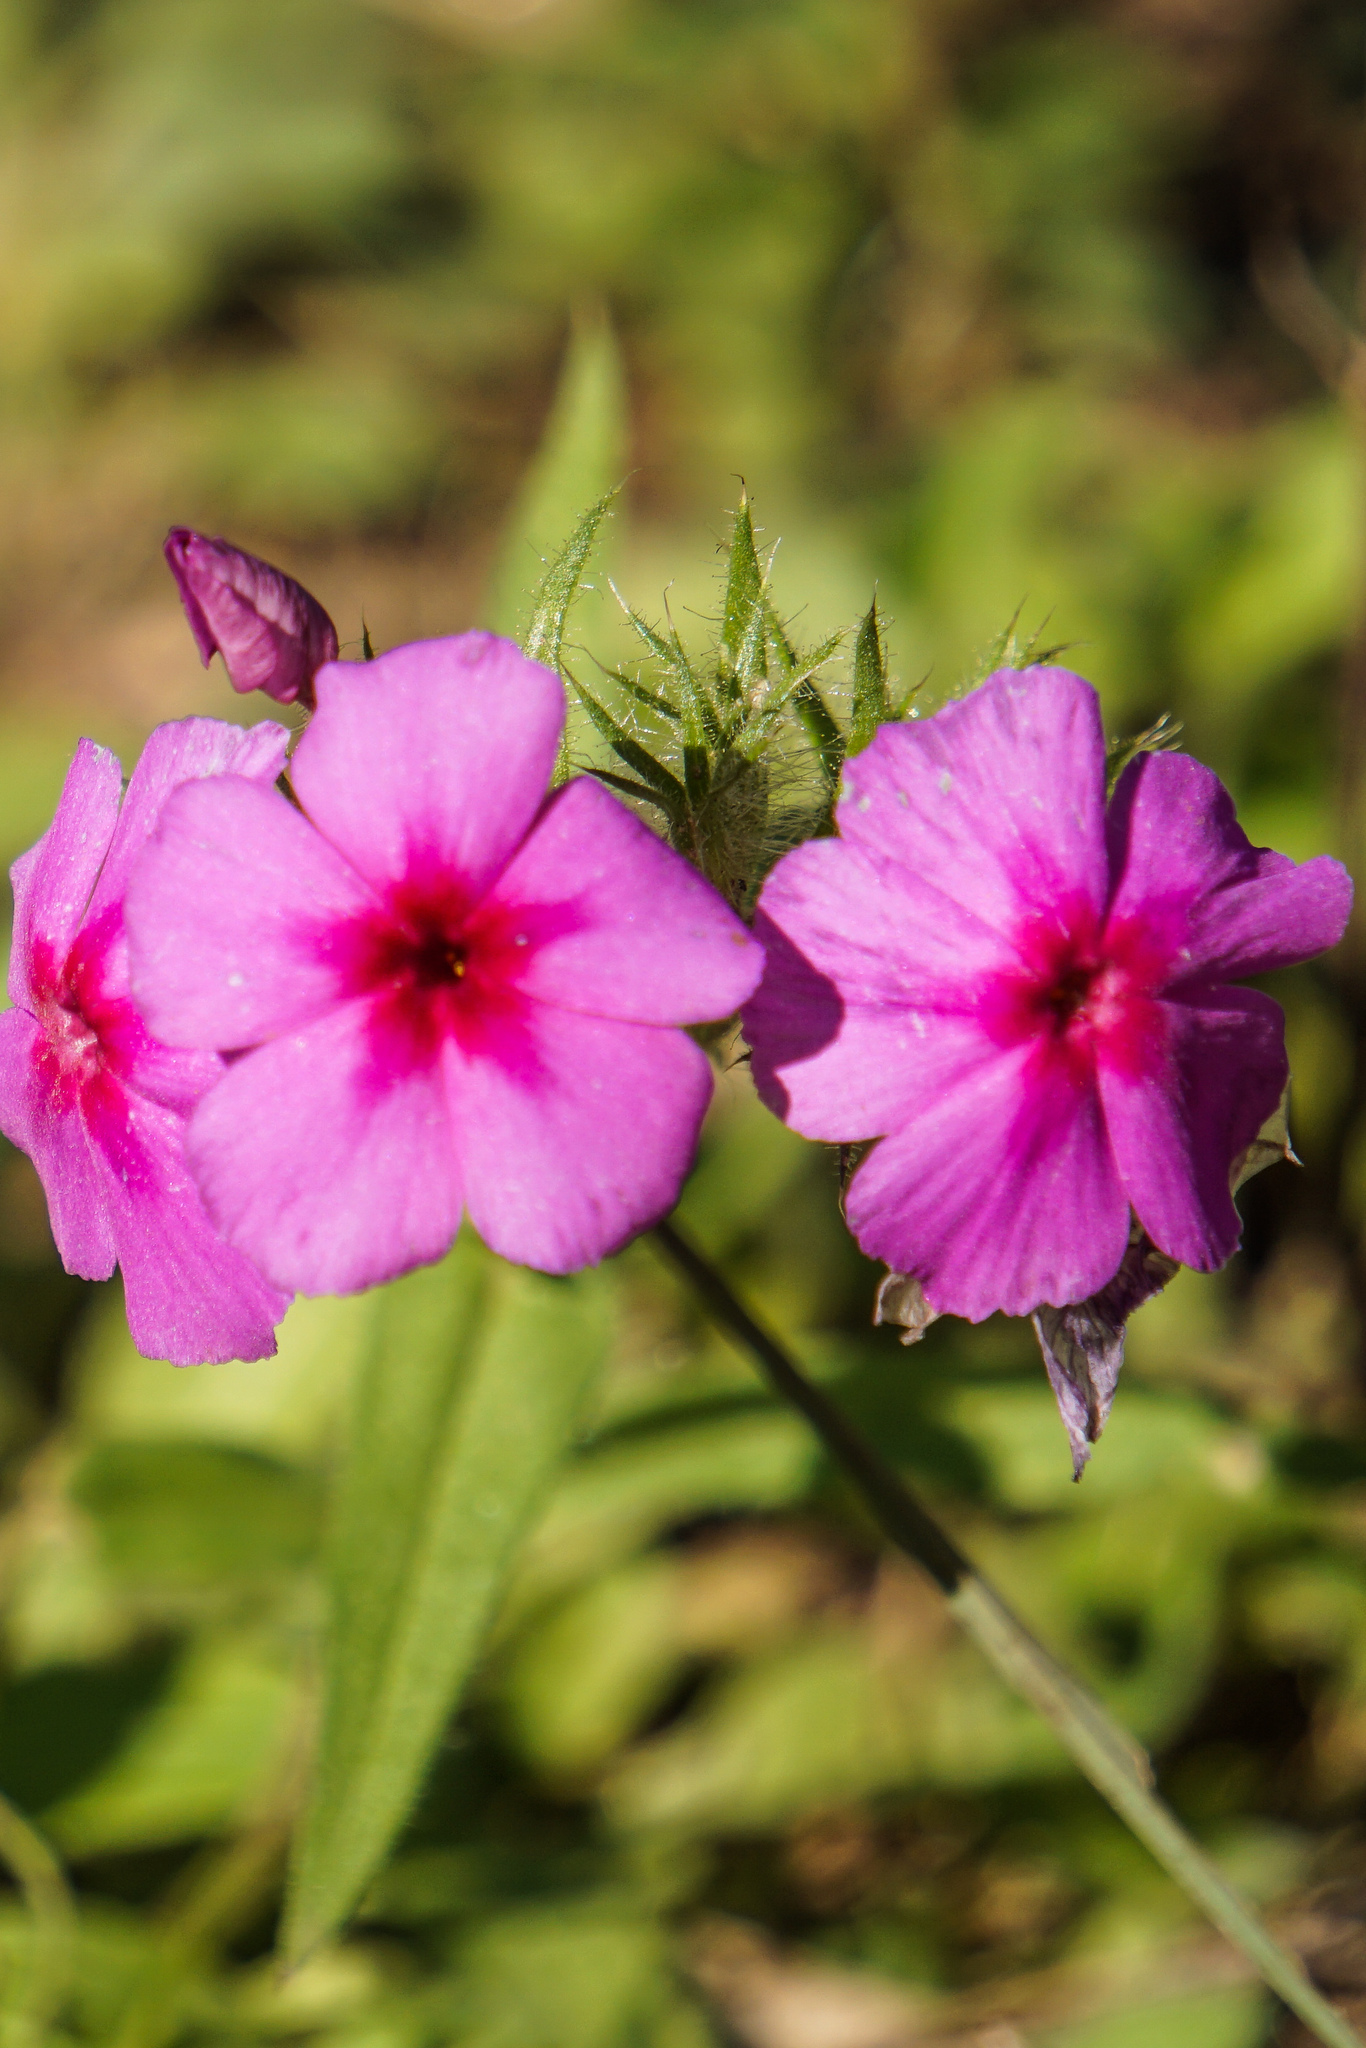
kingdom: Plantae
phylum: Tracheophyta
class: Magnoliopsida
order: Ericales
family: Polemoniaceae
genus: Phlox
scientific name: Phlox drummondii
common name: Drummond's phlox
